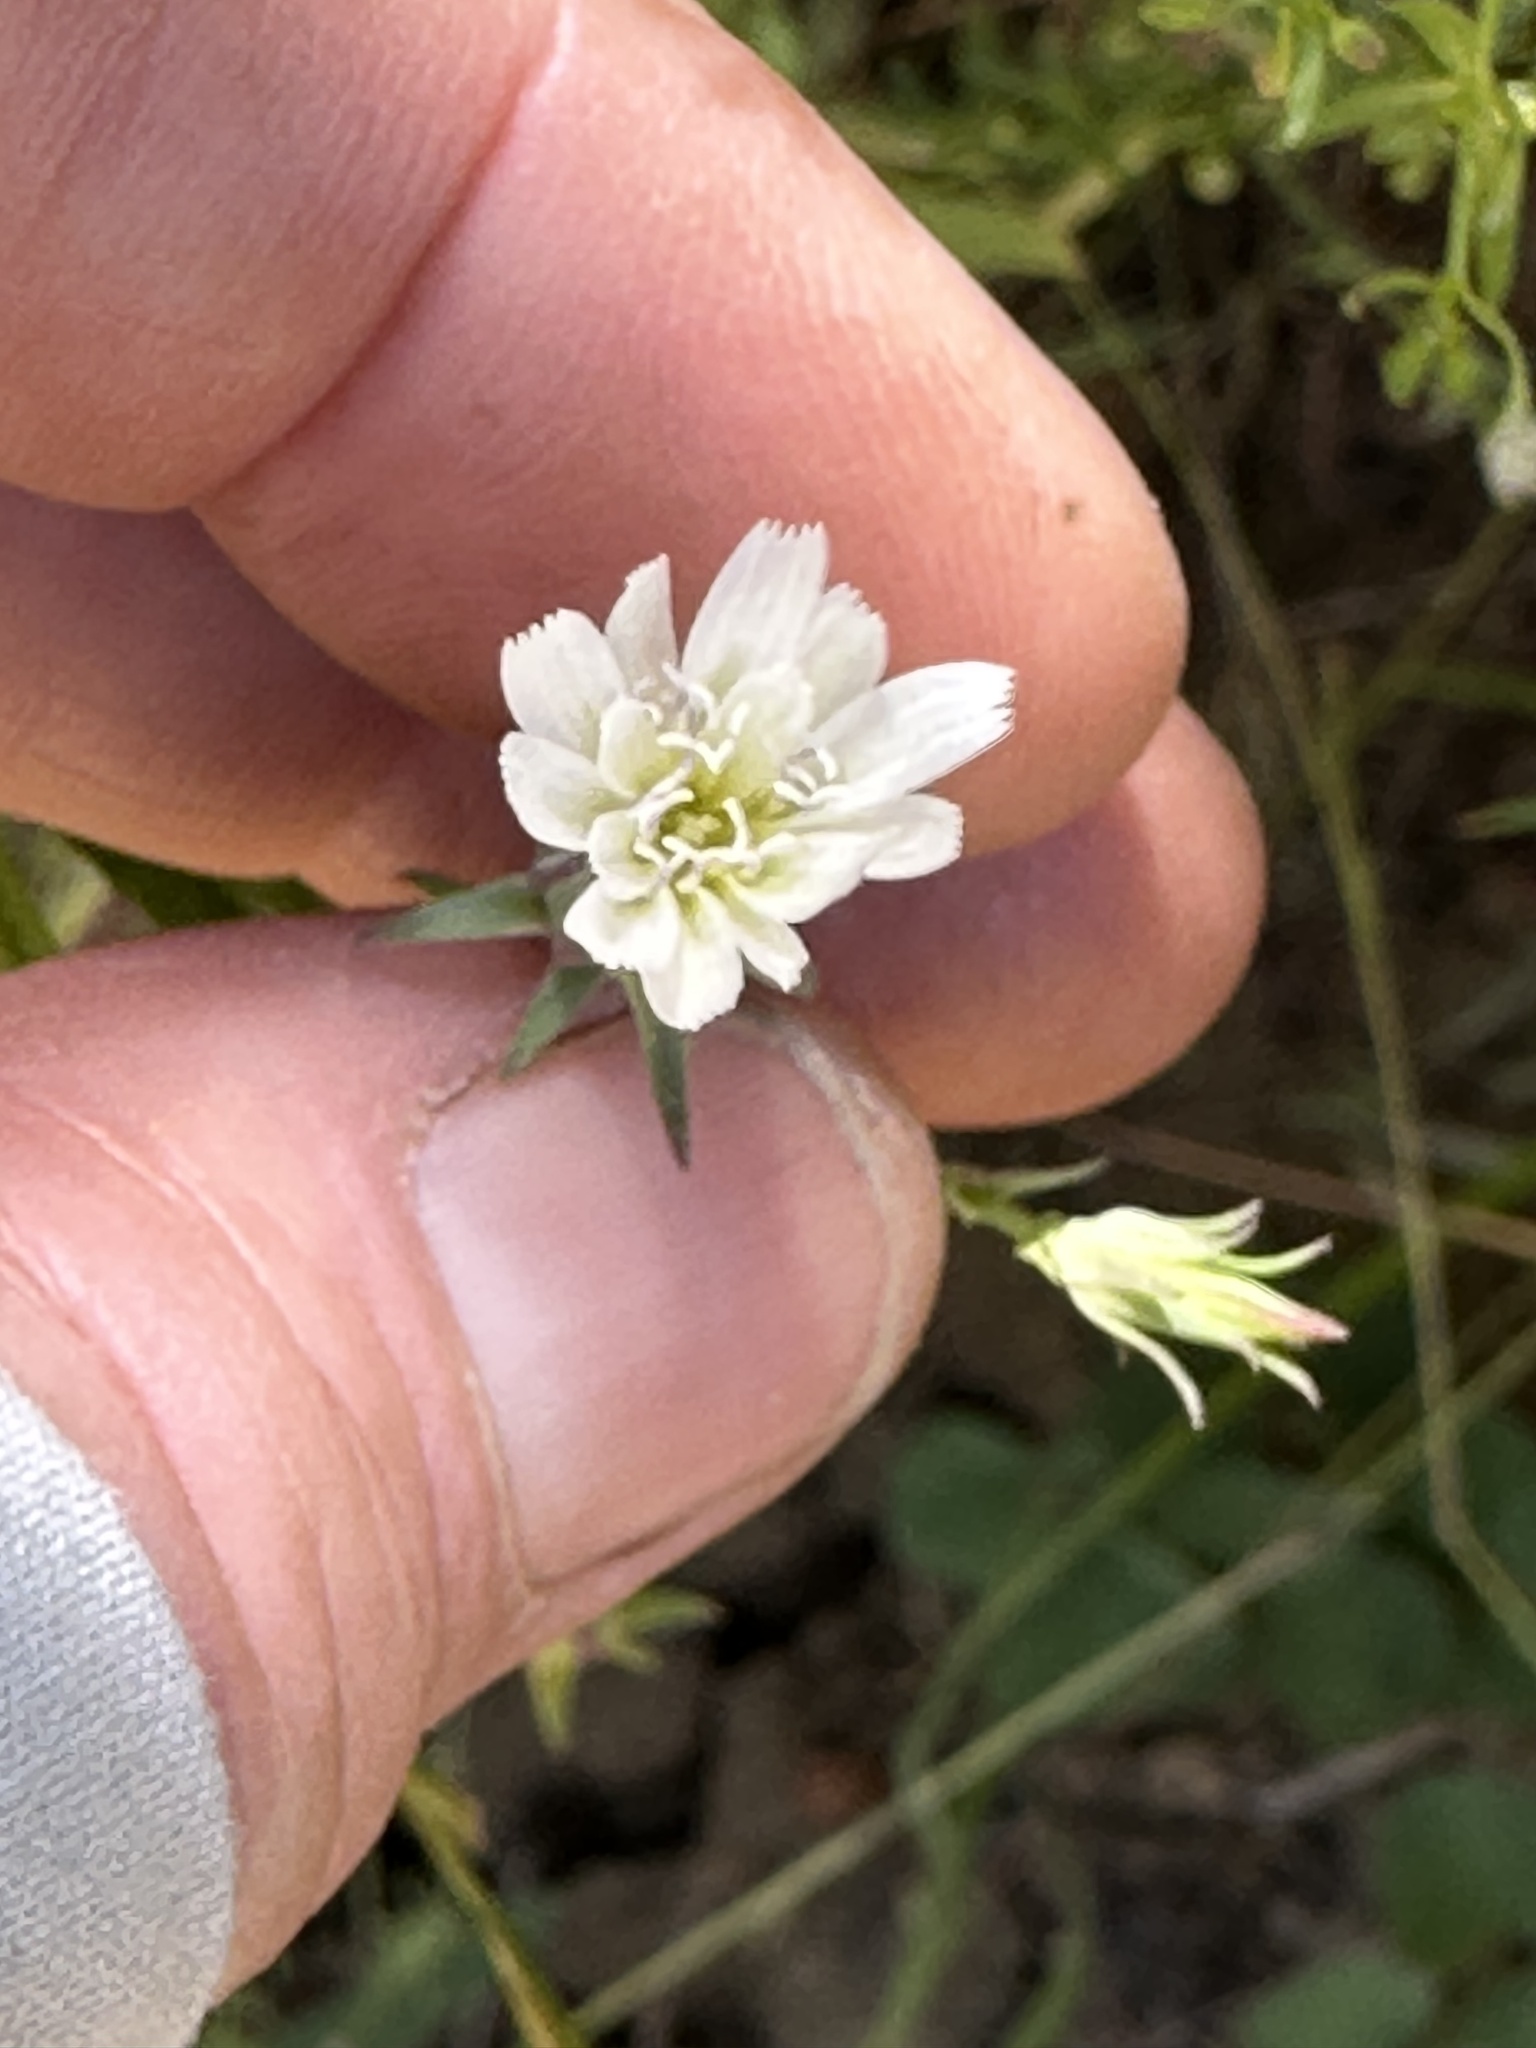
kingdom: Plantae
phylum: Tracheophyta
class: Magnoliopsida
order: Asterales
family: Asteraceae
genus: Rafinesquia
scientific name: Rafinesquia californica
